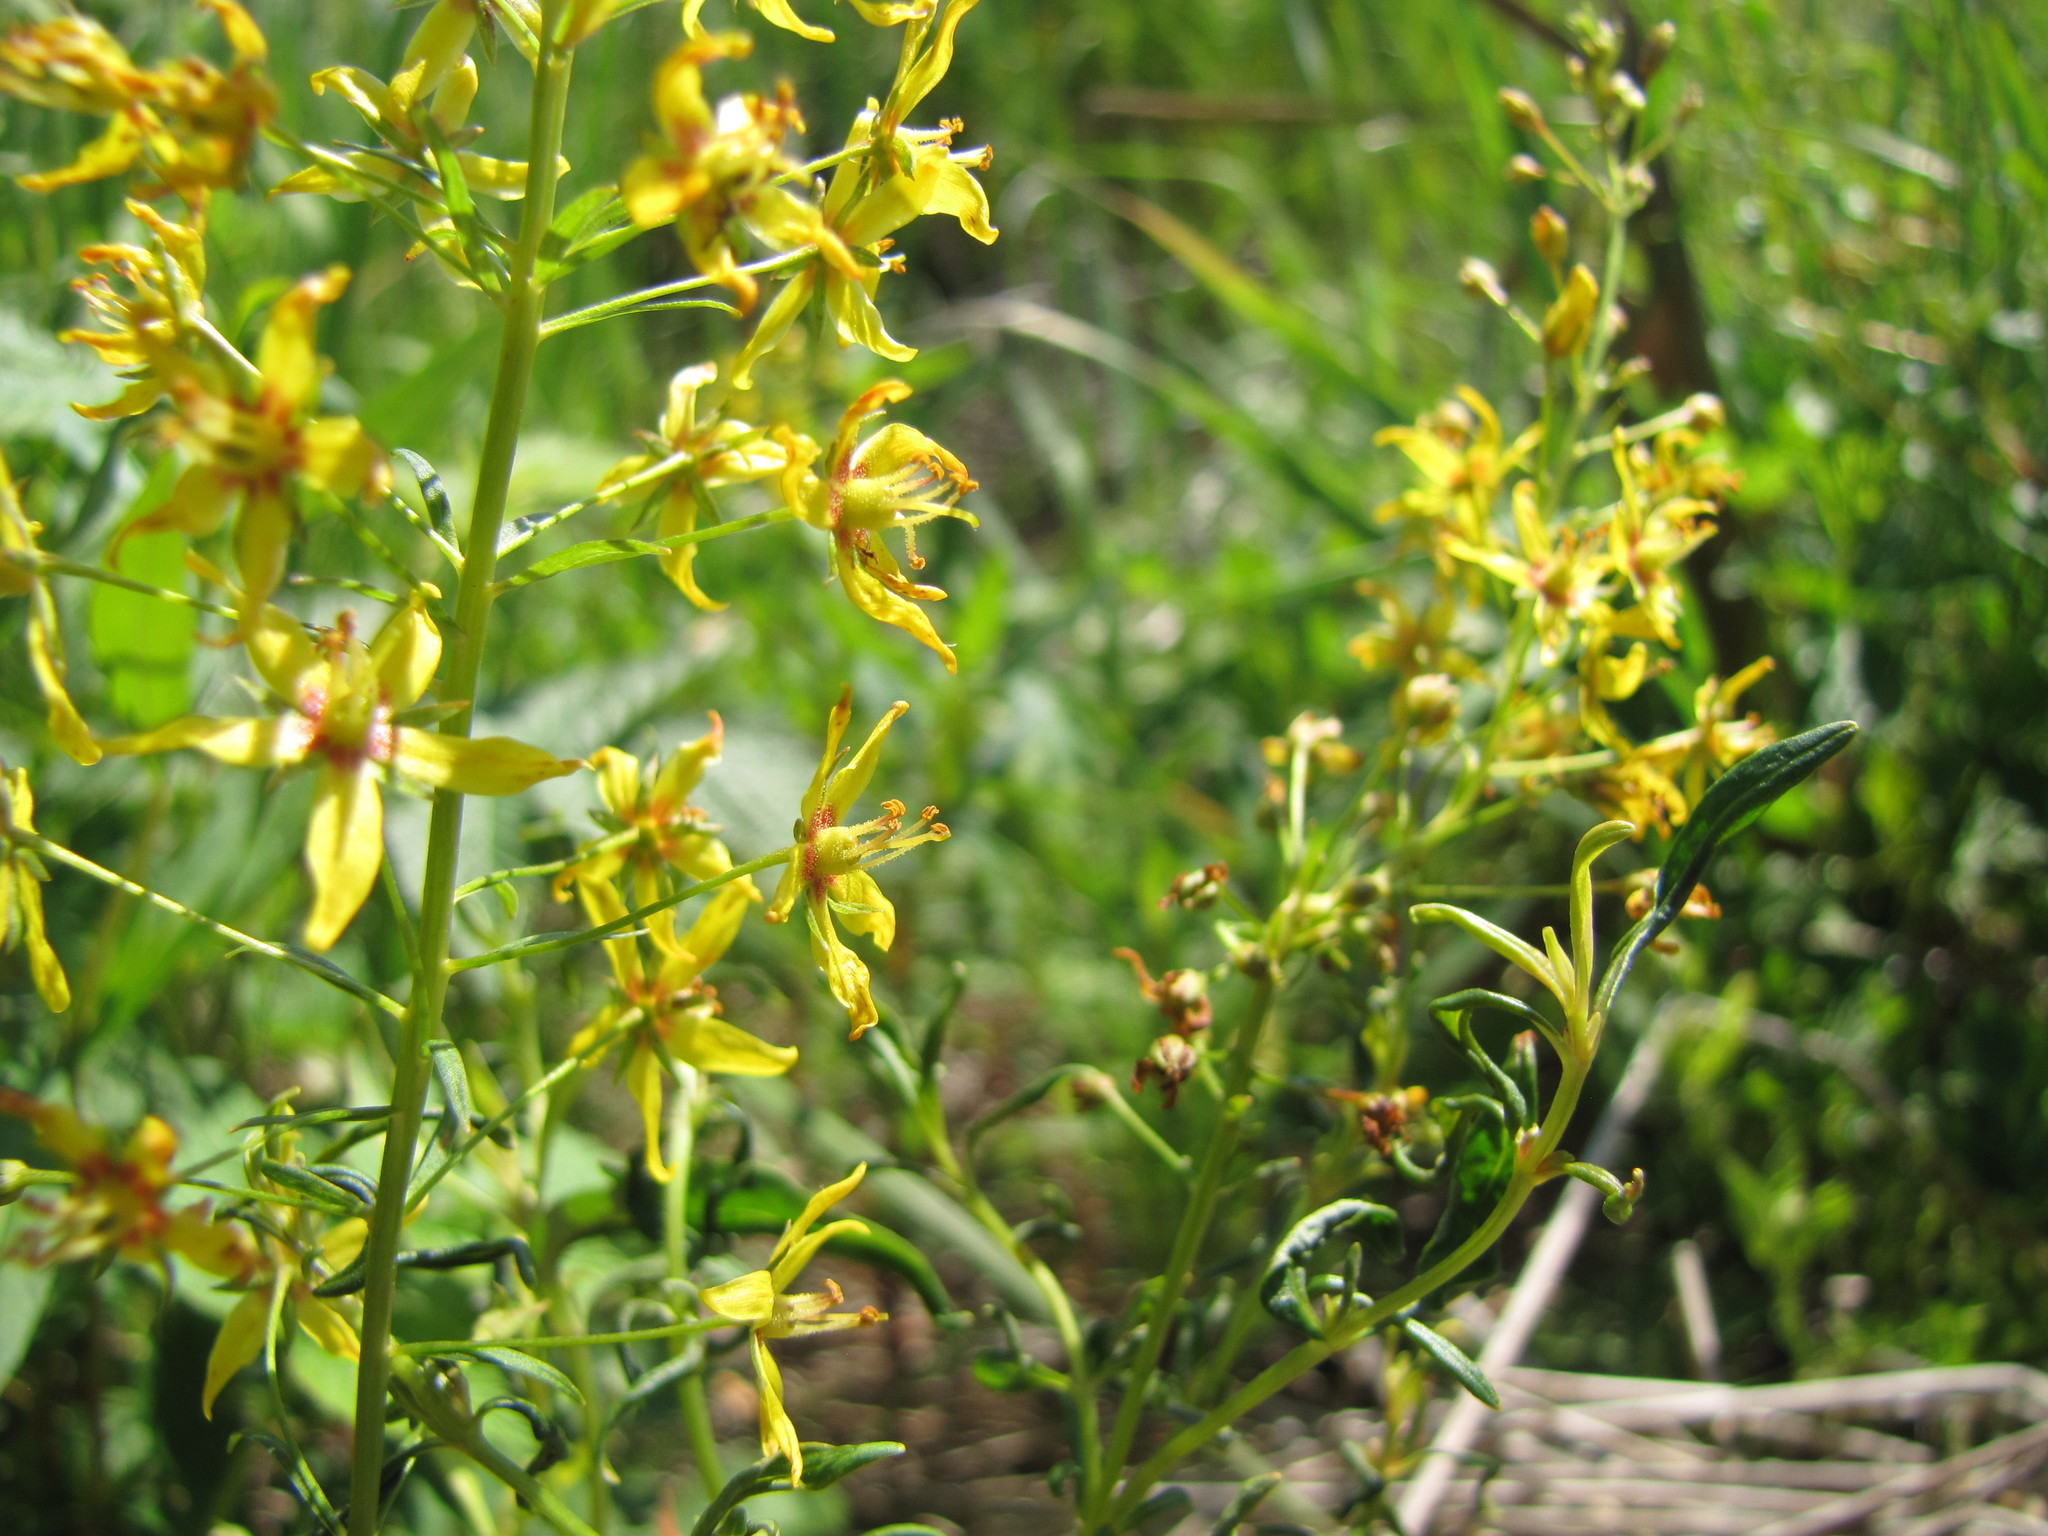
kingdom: Plantae
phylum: Tracheophyta
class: Magnoliopsida
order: Ericales
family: Primulaceae
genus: Lysimachia
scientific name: Lysimachia terrestris
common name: Lake loosestrife
